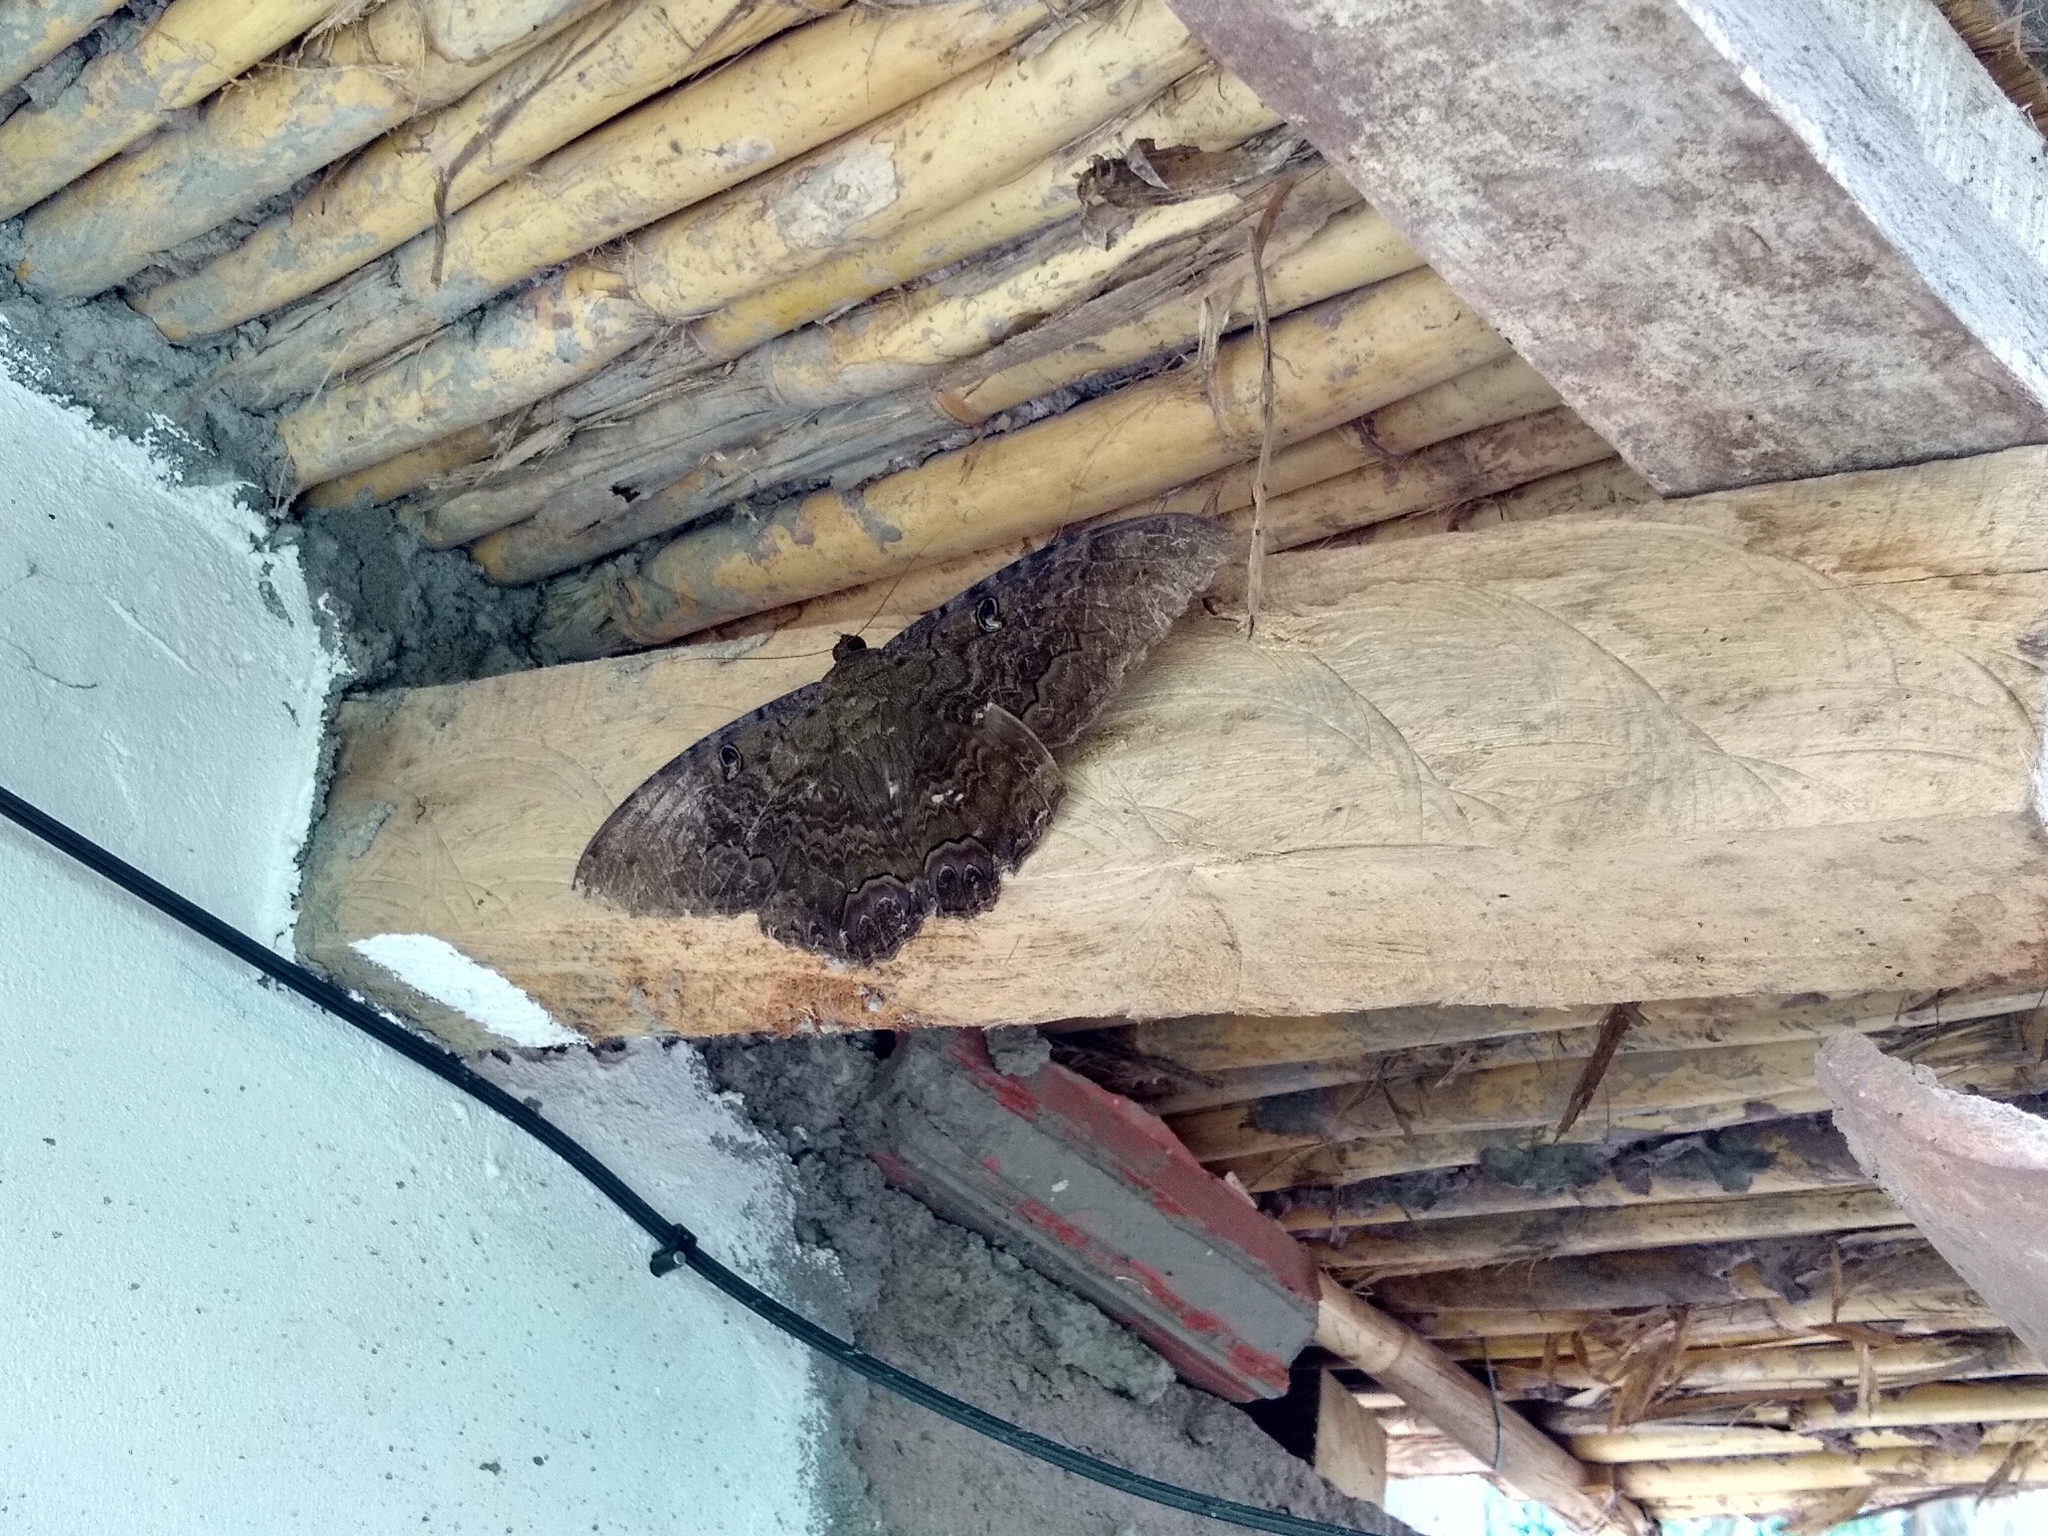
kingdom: Animalia
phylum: Arthropoda
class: Insecta
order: Lepidoptera
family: Erebidae
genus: Ascalapha
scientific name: Ascalapha odorata
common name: Black witch
